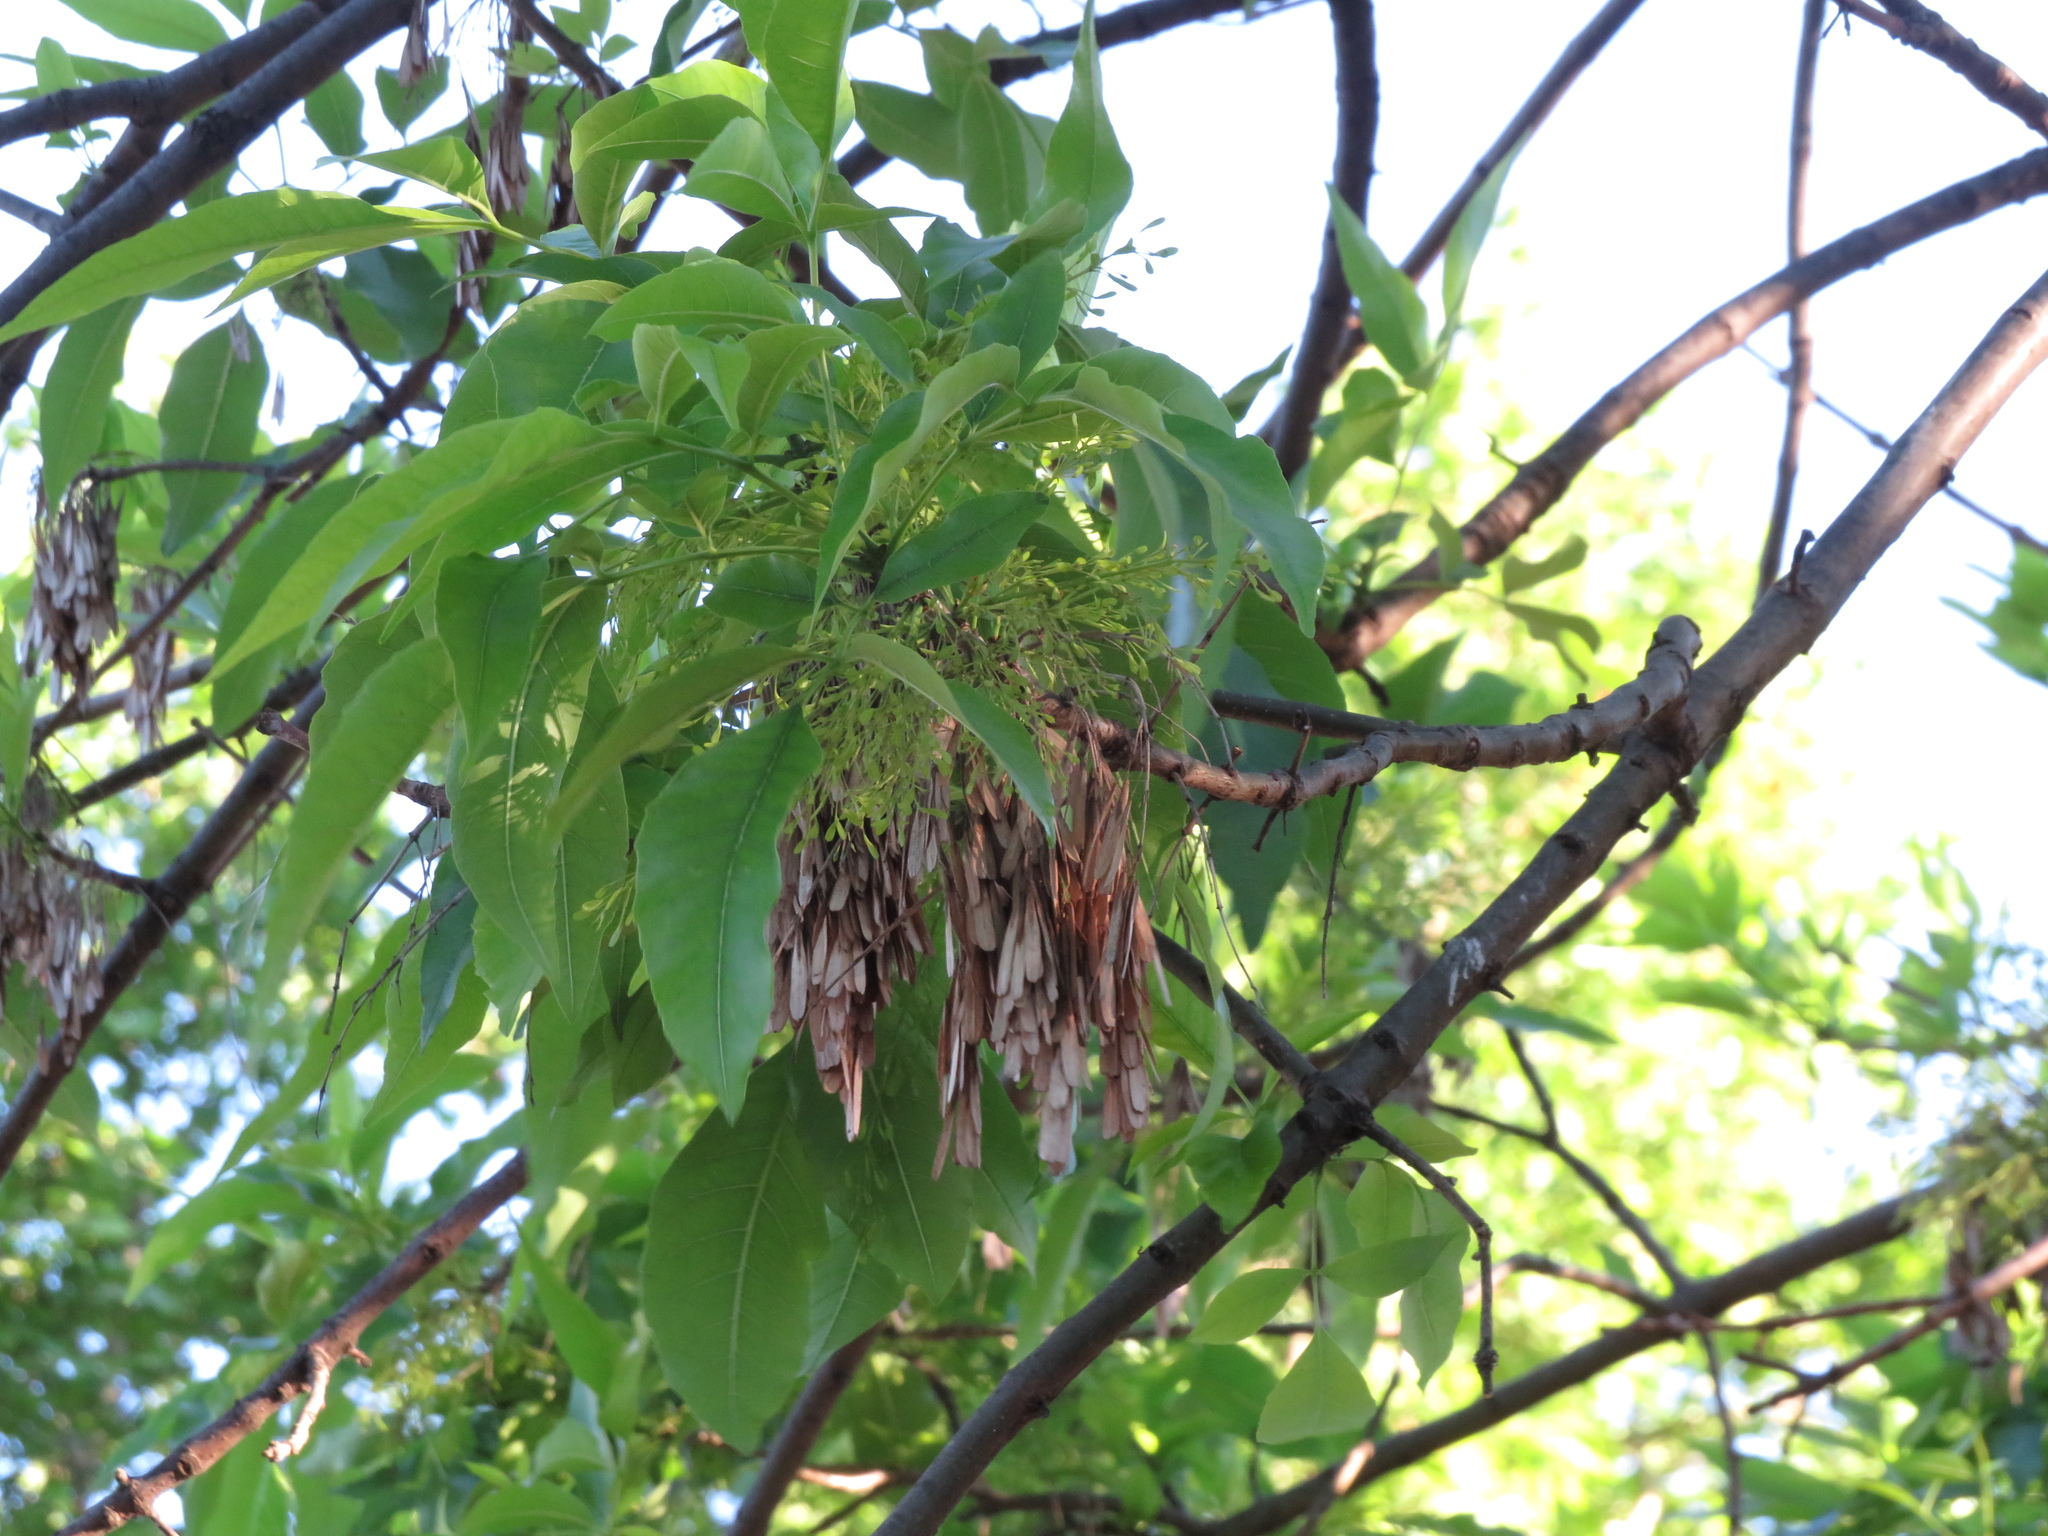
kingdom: Plantae
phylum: Tracheophyta
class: Magnoliopsida
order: Lamiales
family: Oleaceae
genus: Fraxinus
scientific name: Fraxinus pennsylvanica
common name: Green ash
